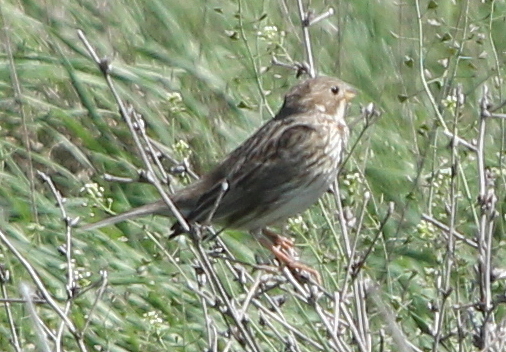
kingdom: Animalia
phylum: Chordata
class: Aves
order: Passeriformes
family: Emberizidae
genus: Emberiza
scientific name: Emberiza calandra
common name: Corn bunting
